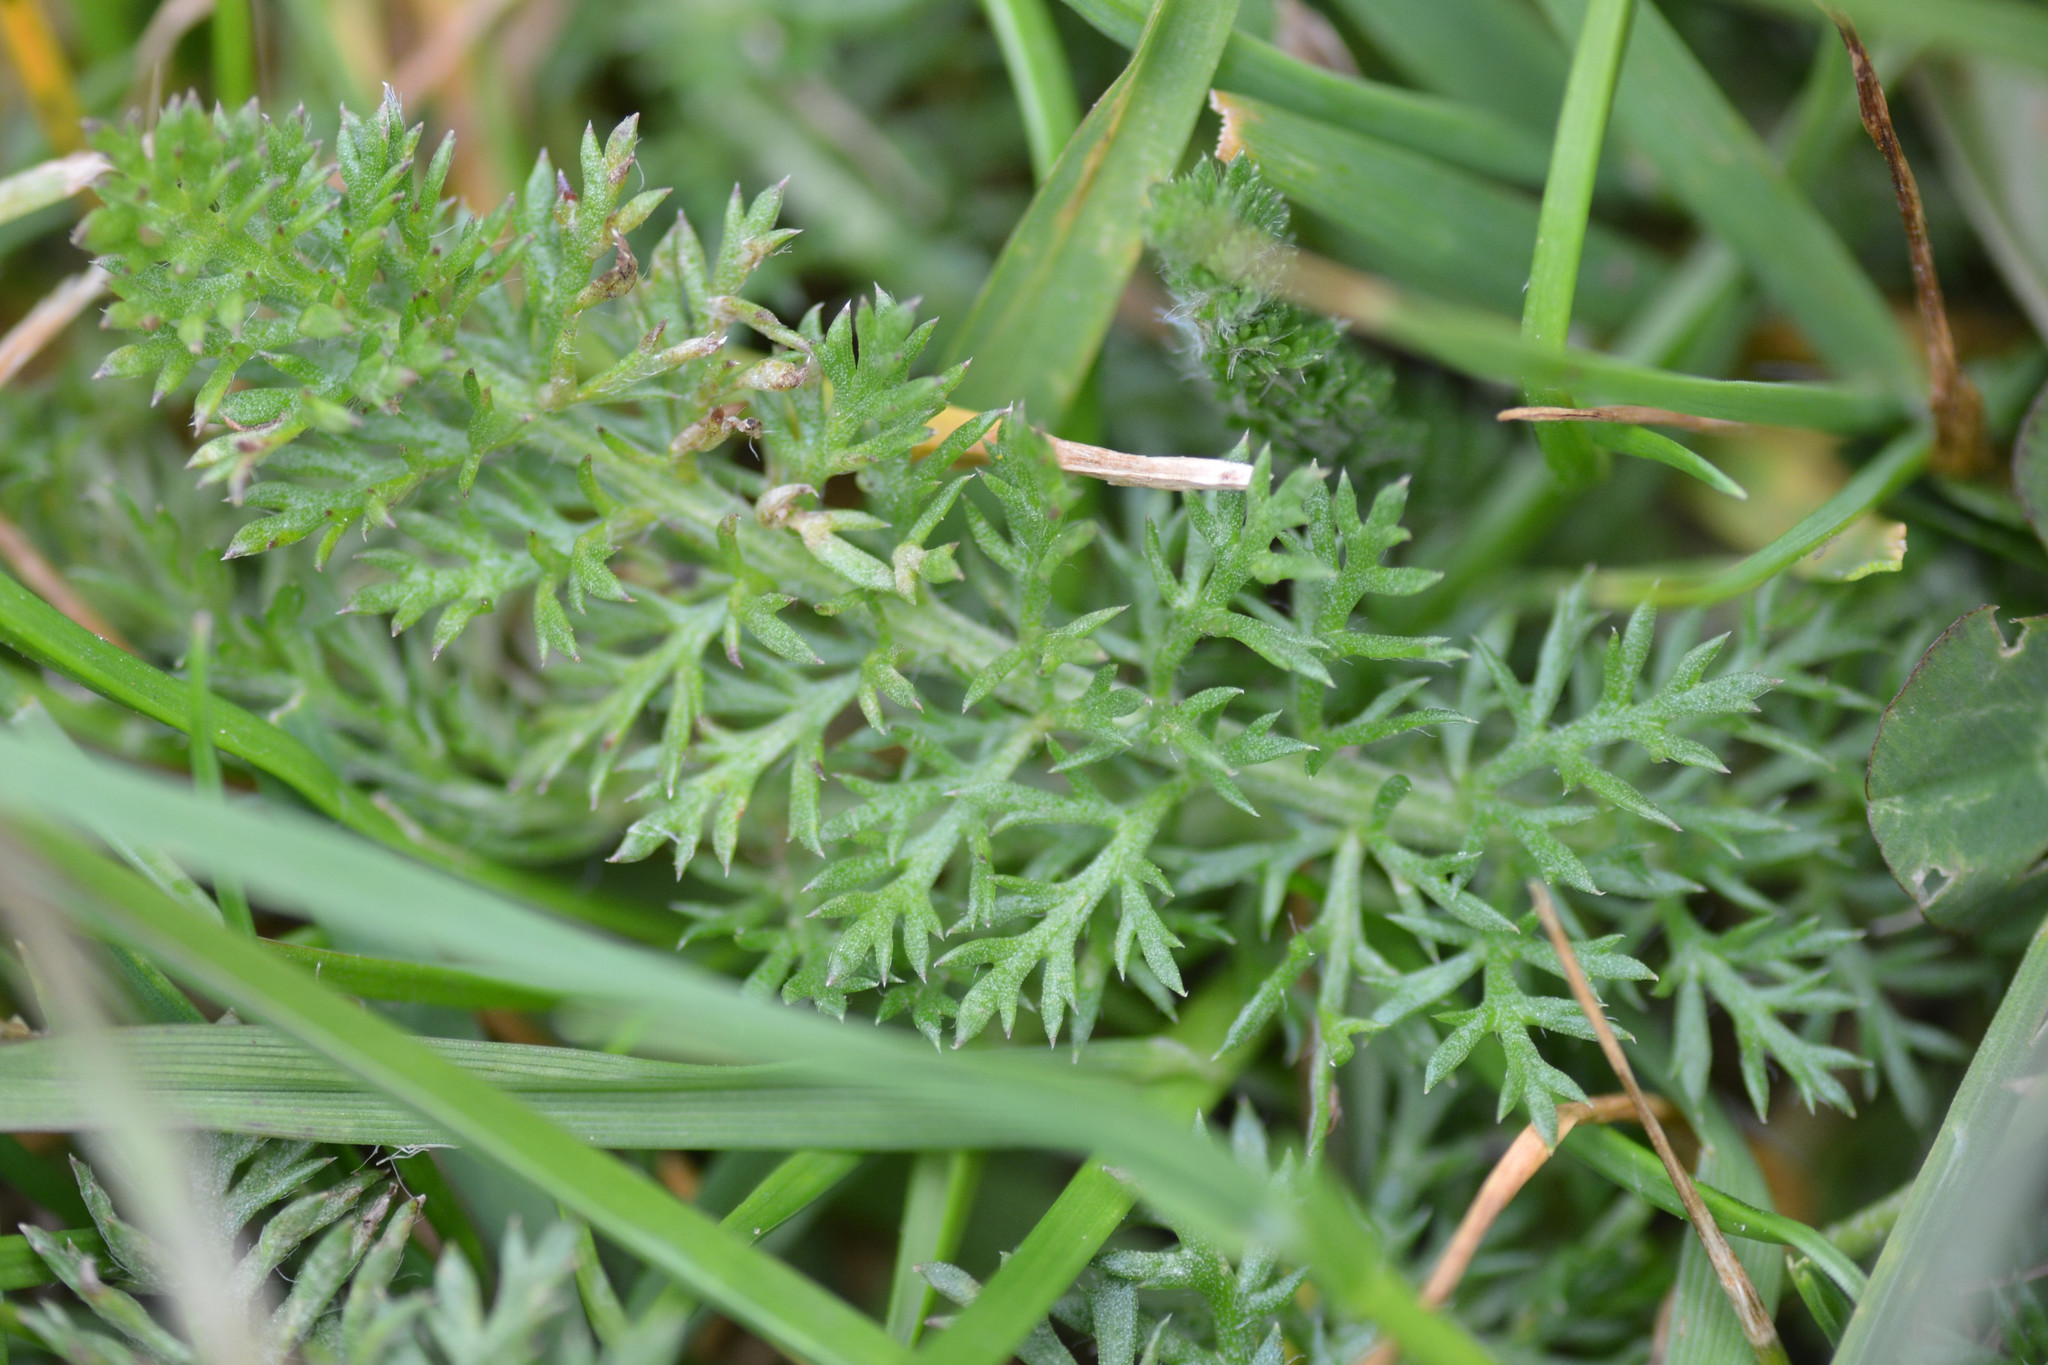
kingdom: Plantae
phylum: Tracheophyta
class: Magnoliopsida
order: Asterales
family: Asteraceae
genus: Achillea
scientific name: Achillea millefolium
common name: Yarrow
